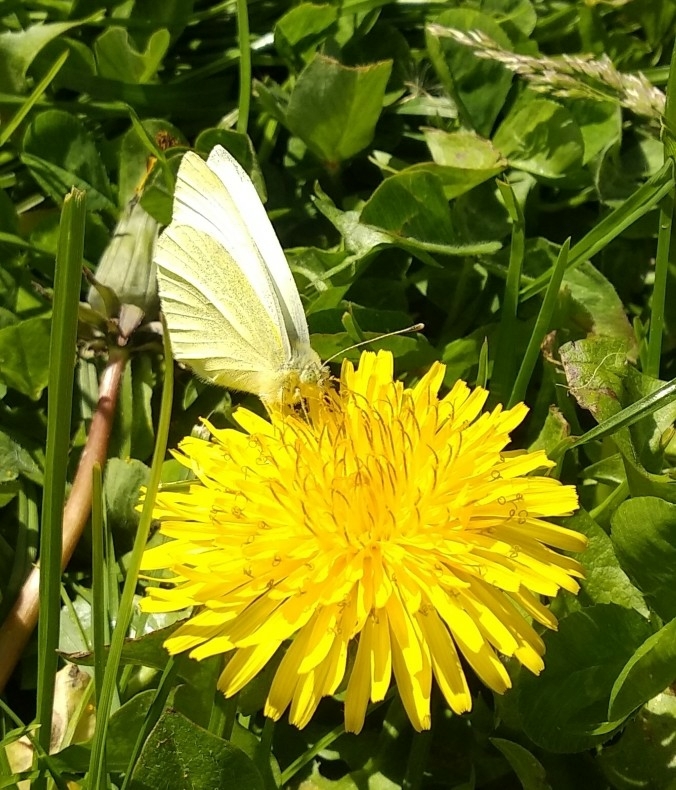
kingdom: Animalia
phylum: Arthropoda
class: Insecta
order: Lepidoptera
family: Pieridae
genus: Pieris
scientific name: Pieris rapae
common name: Small white
